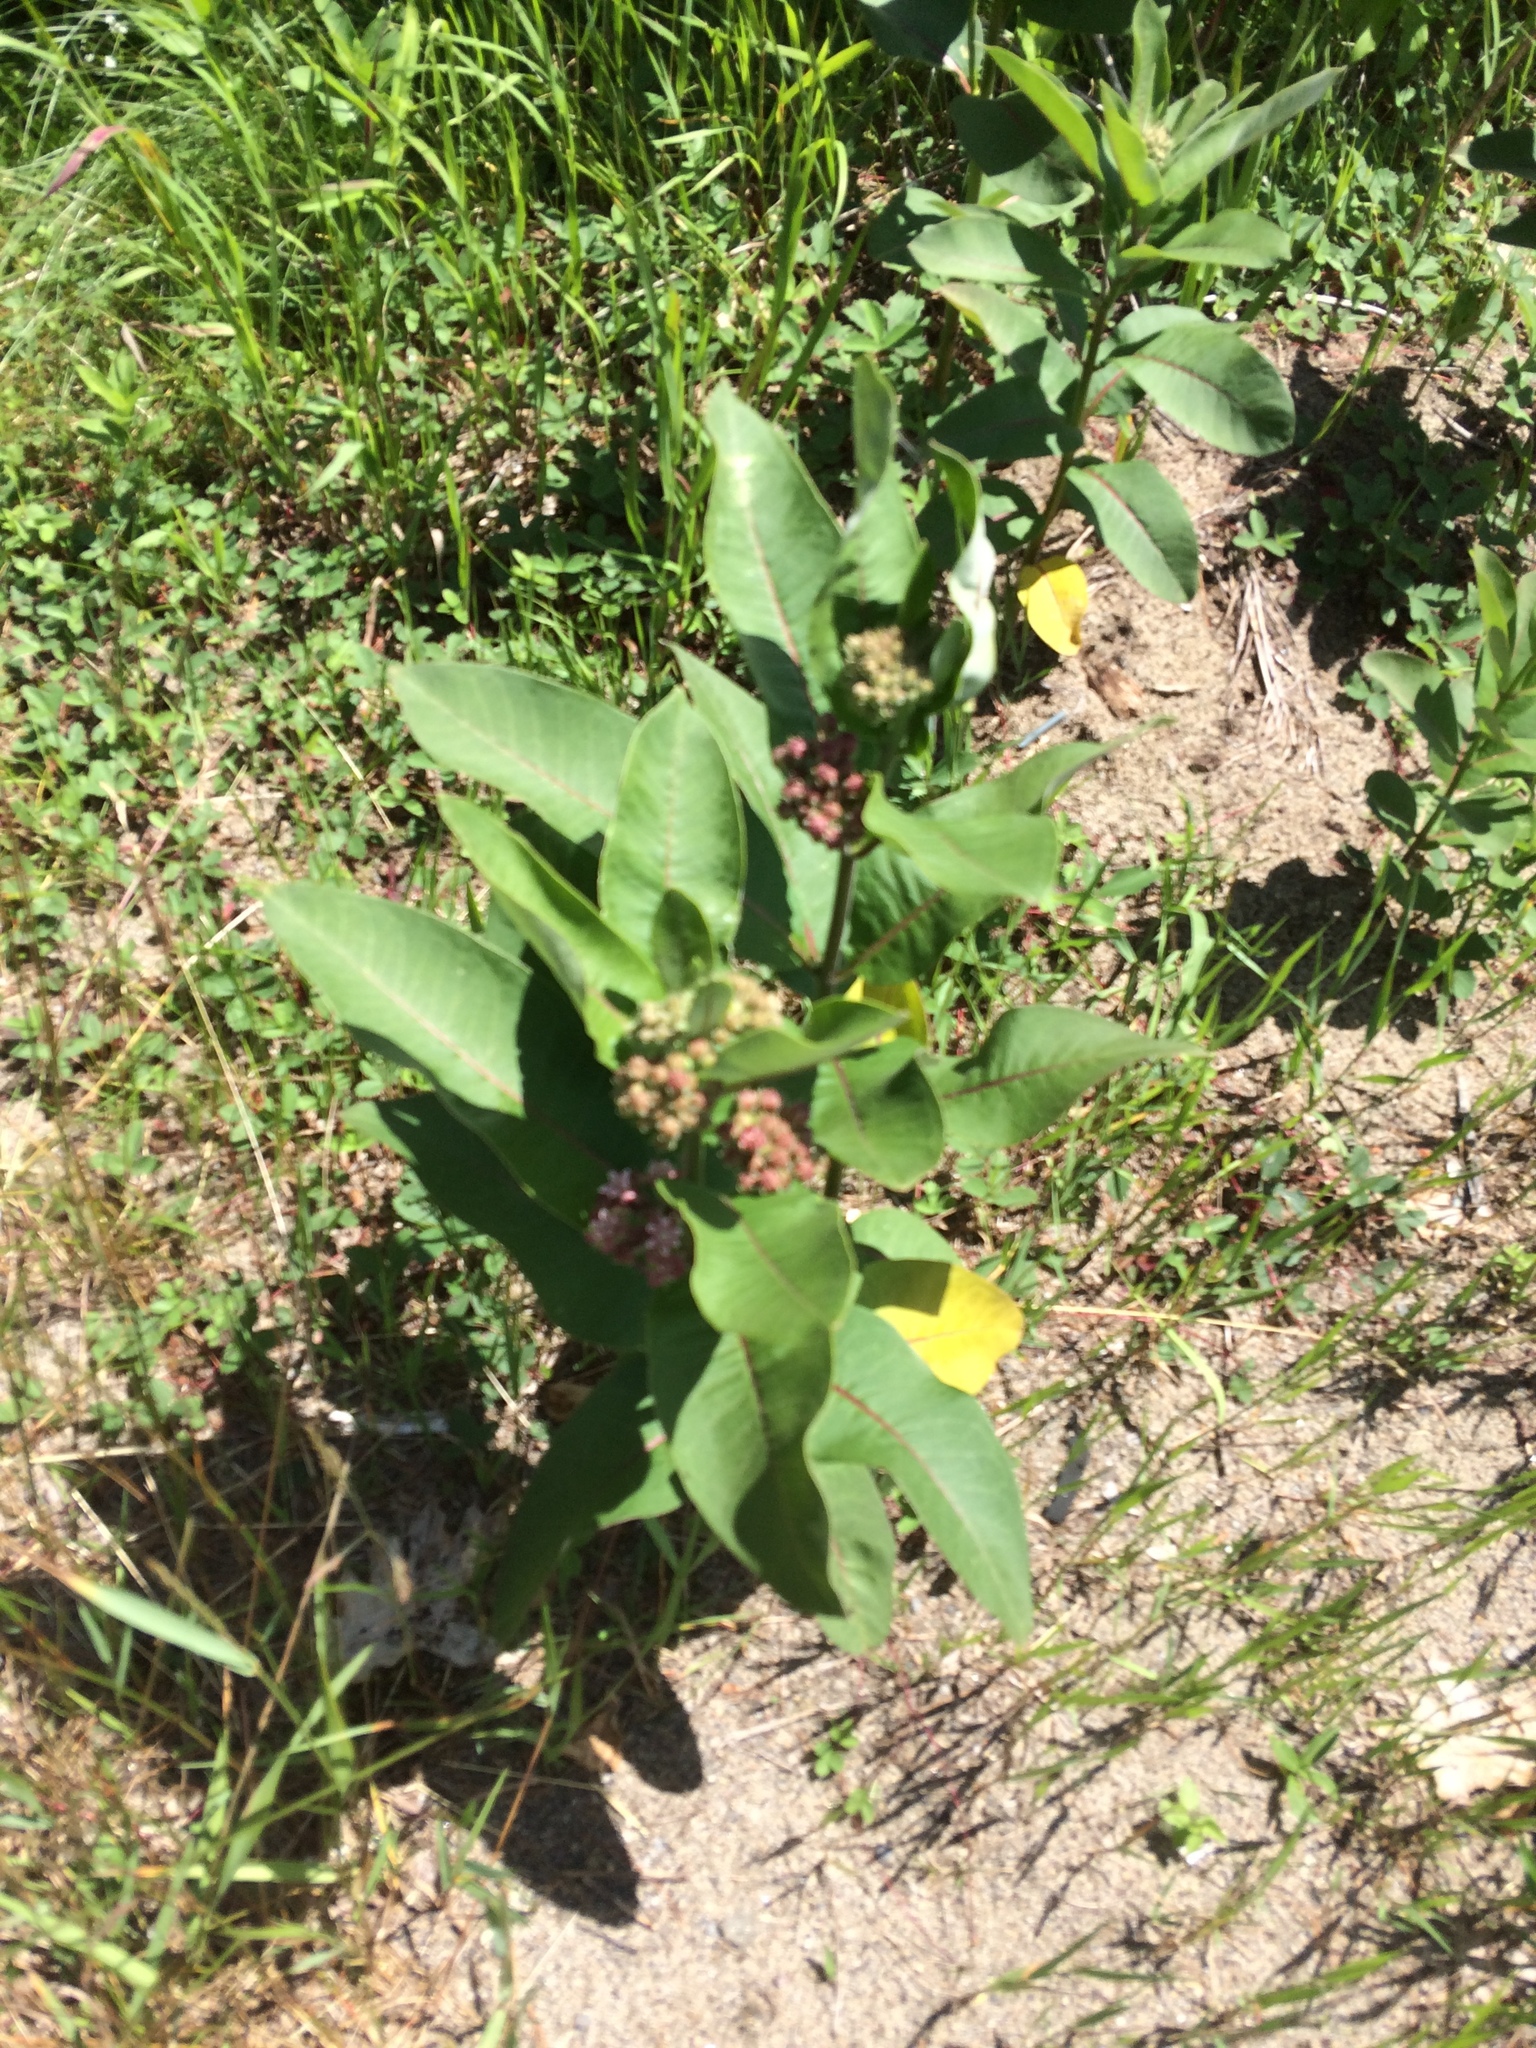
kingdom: Plantae
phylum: Tracheophyta
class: Magnoliopsida
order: Gentianales
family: Apocynaceae
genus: Asclepias
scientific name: Asclepias syriaca
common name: Common milkweed
